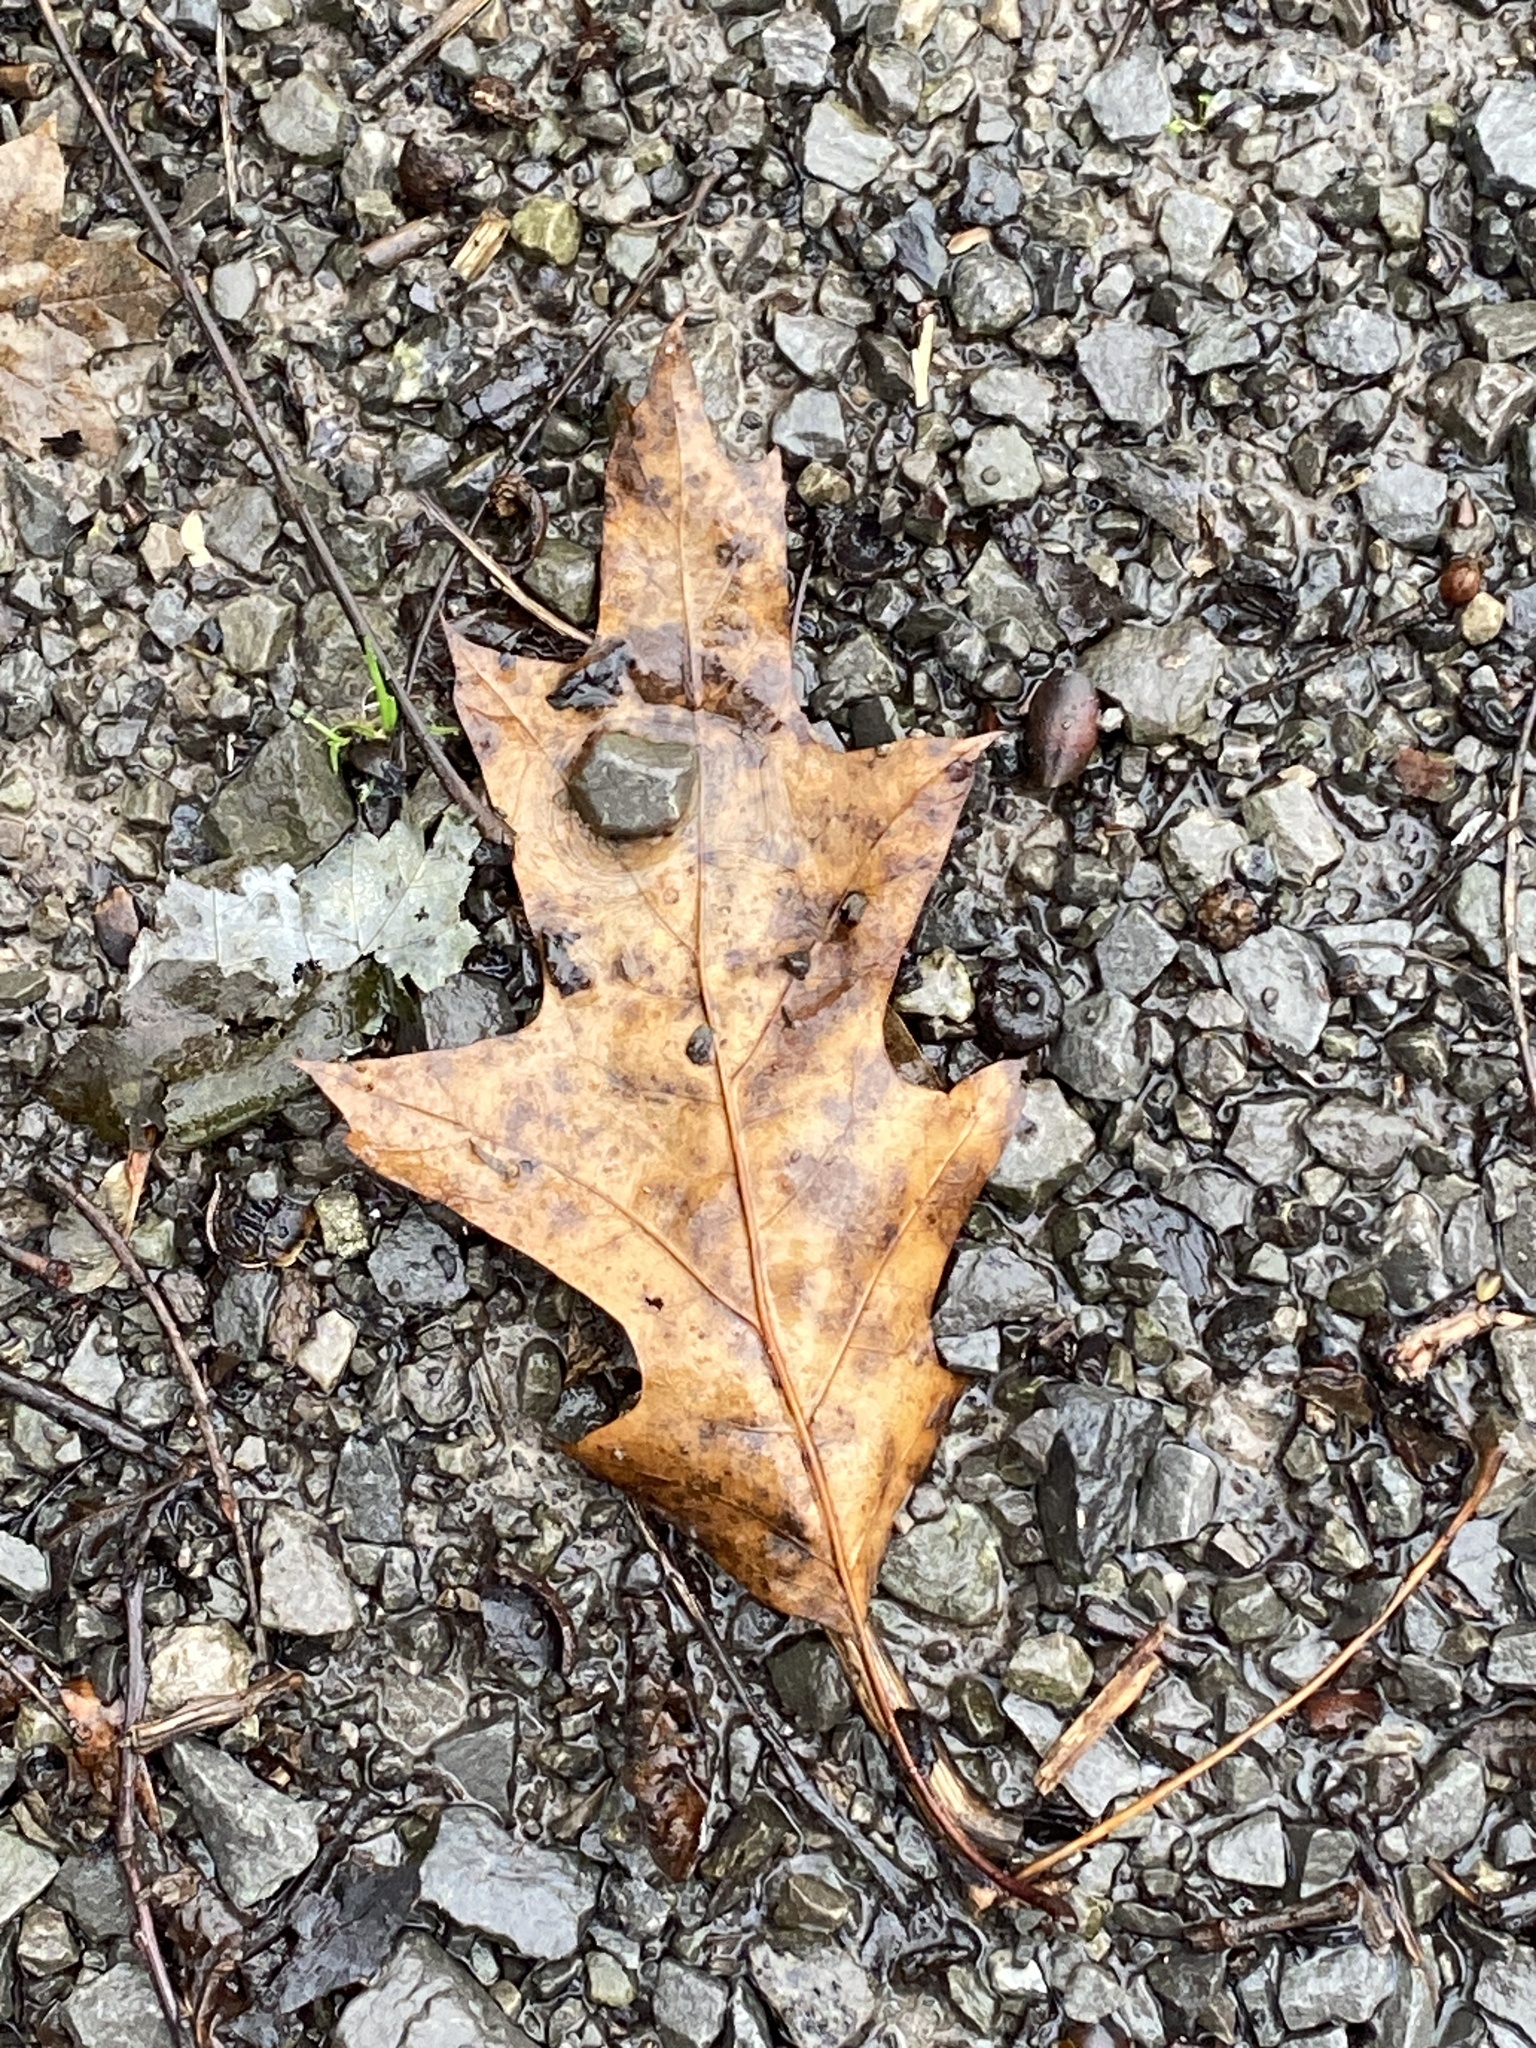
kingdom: Plantae
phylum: Tracheophyta
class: Magnoliopsida
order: Fagales
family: Fagaceae
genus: Quercus
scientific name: Quercus rubra
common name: Red oak
